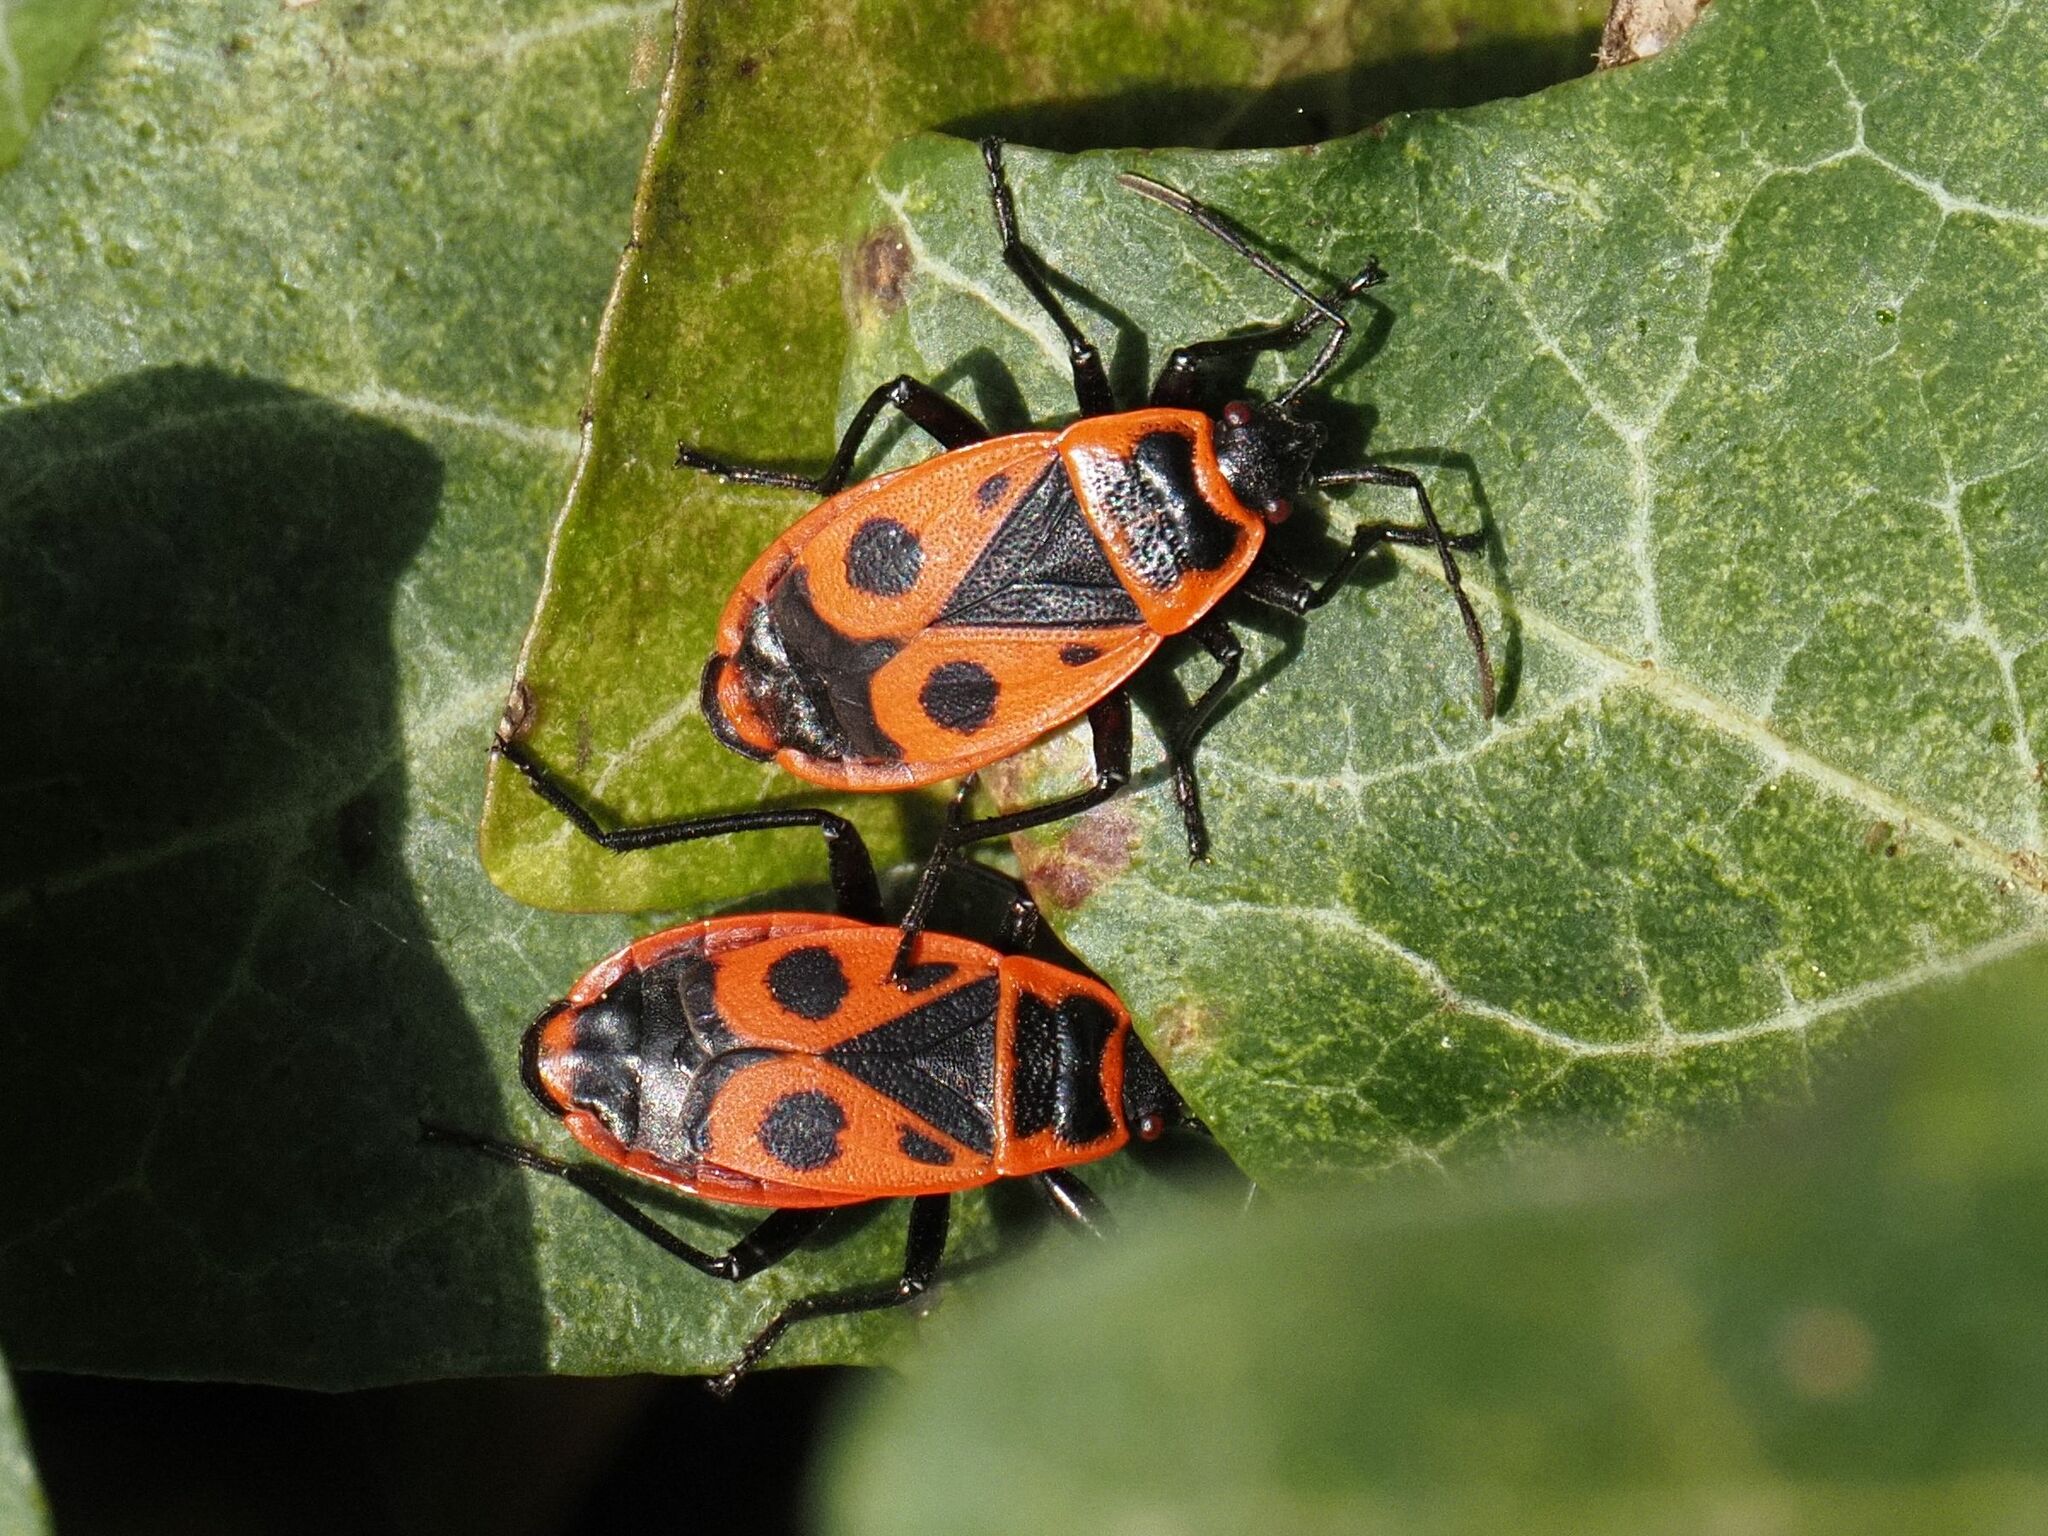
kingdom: Animalia
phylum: Arthropoda
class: Insecta
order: Hemiptera
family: Pyrrhocoridae
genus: Pyrrhocoris
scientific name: Pyrrhocoris apterus
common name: Firebug
